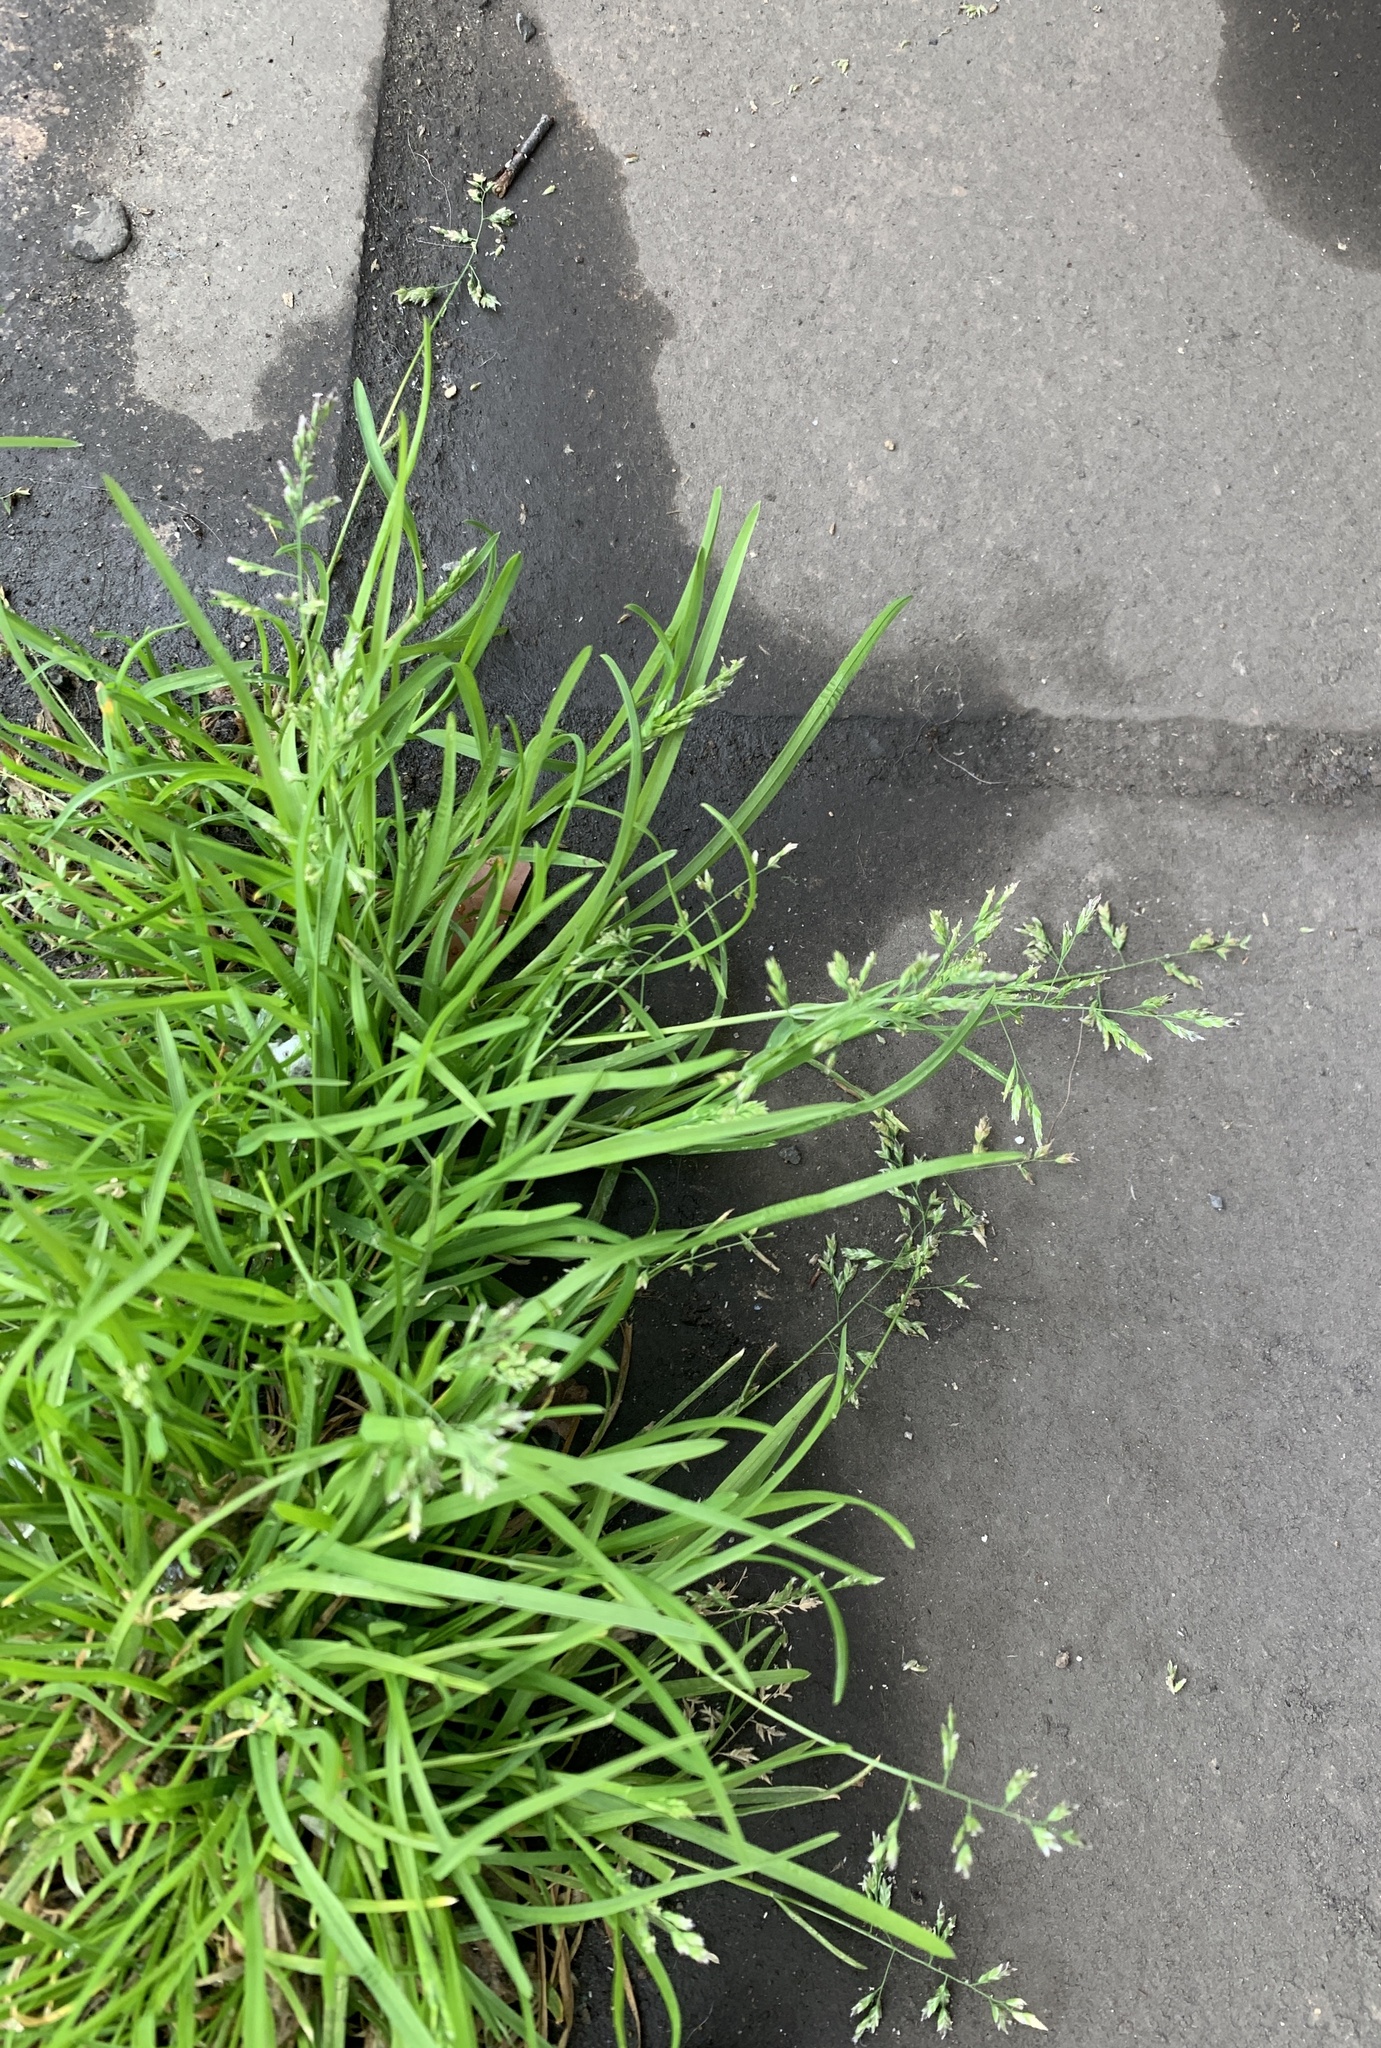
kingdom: Plantae
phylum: Tracheophyta
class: Liliopsida
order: Poales
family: Poaceae
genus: Poa
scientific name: Poa annua
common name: Annual bluegrass
